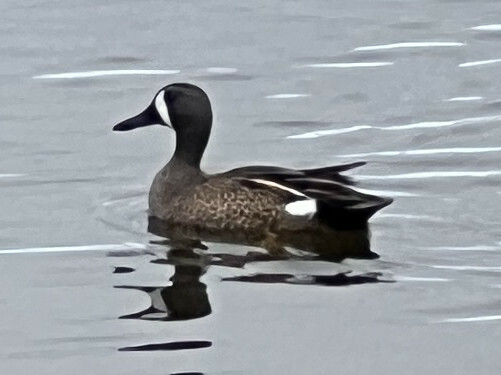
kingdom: Animalia
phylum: Chordata
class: Aves
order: Anseriformes
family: Anatidae
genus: Spatula
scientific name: Spatula discors
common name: Blue-winged teal
